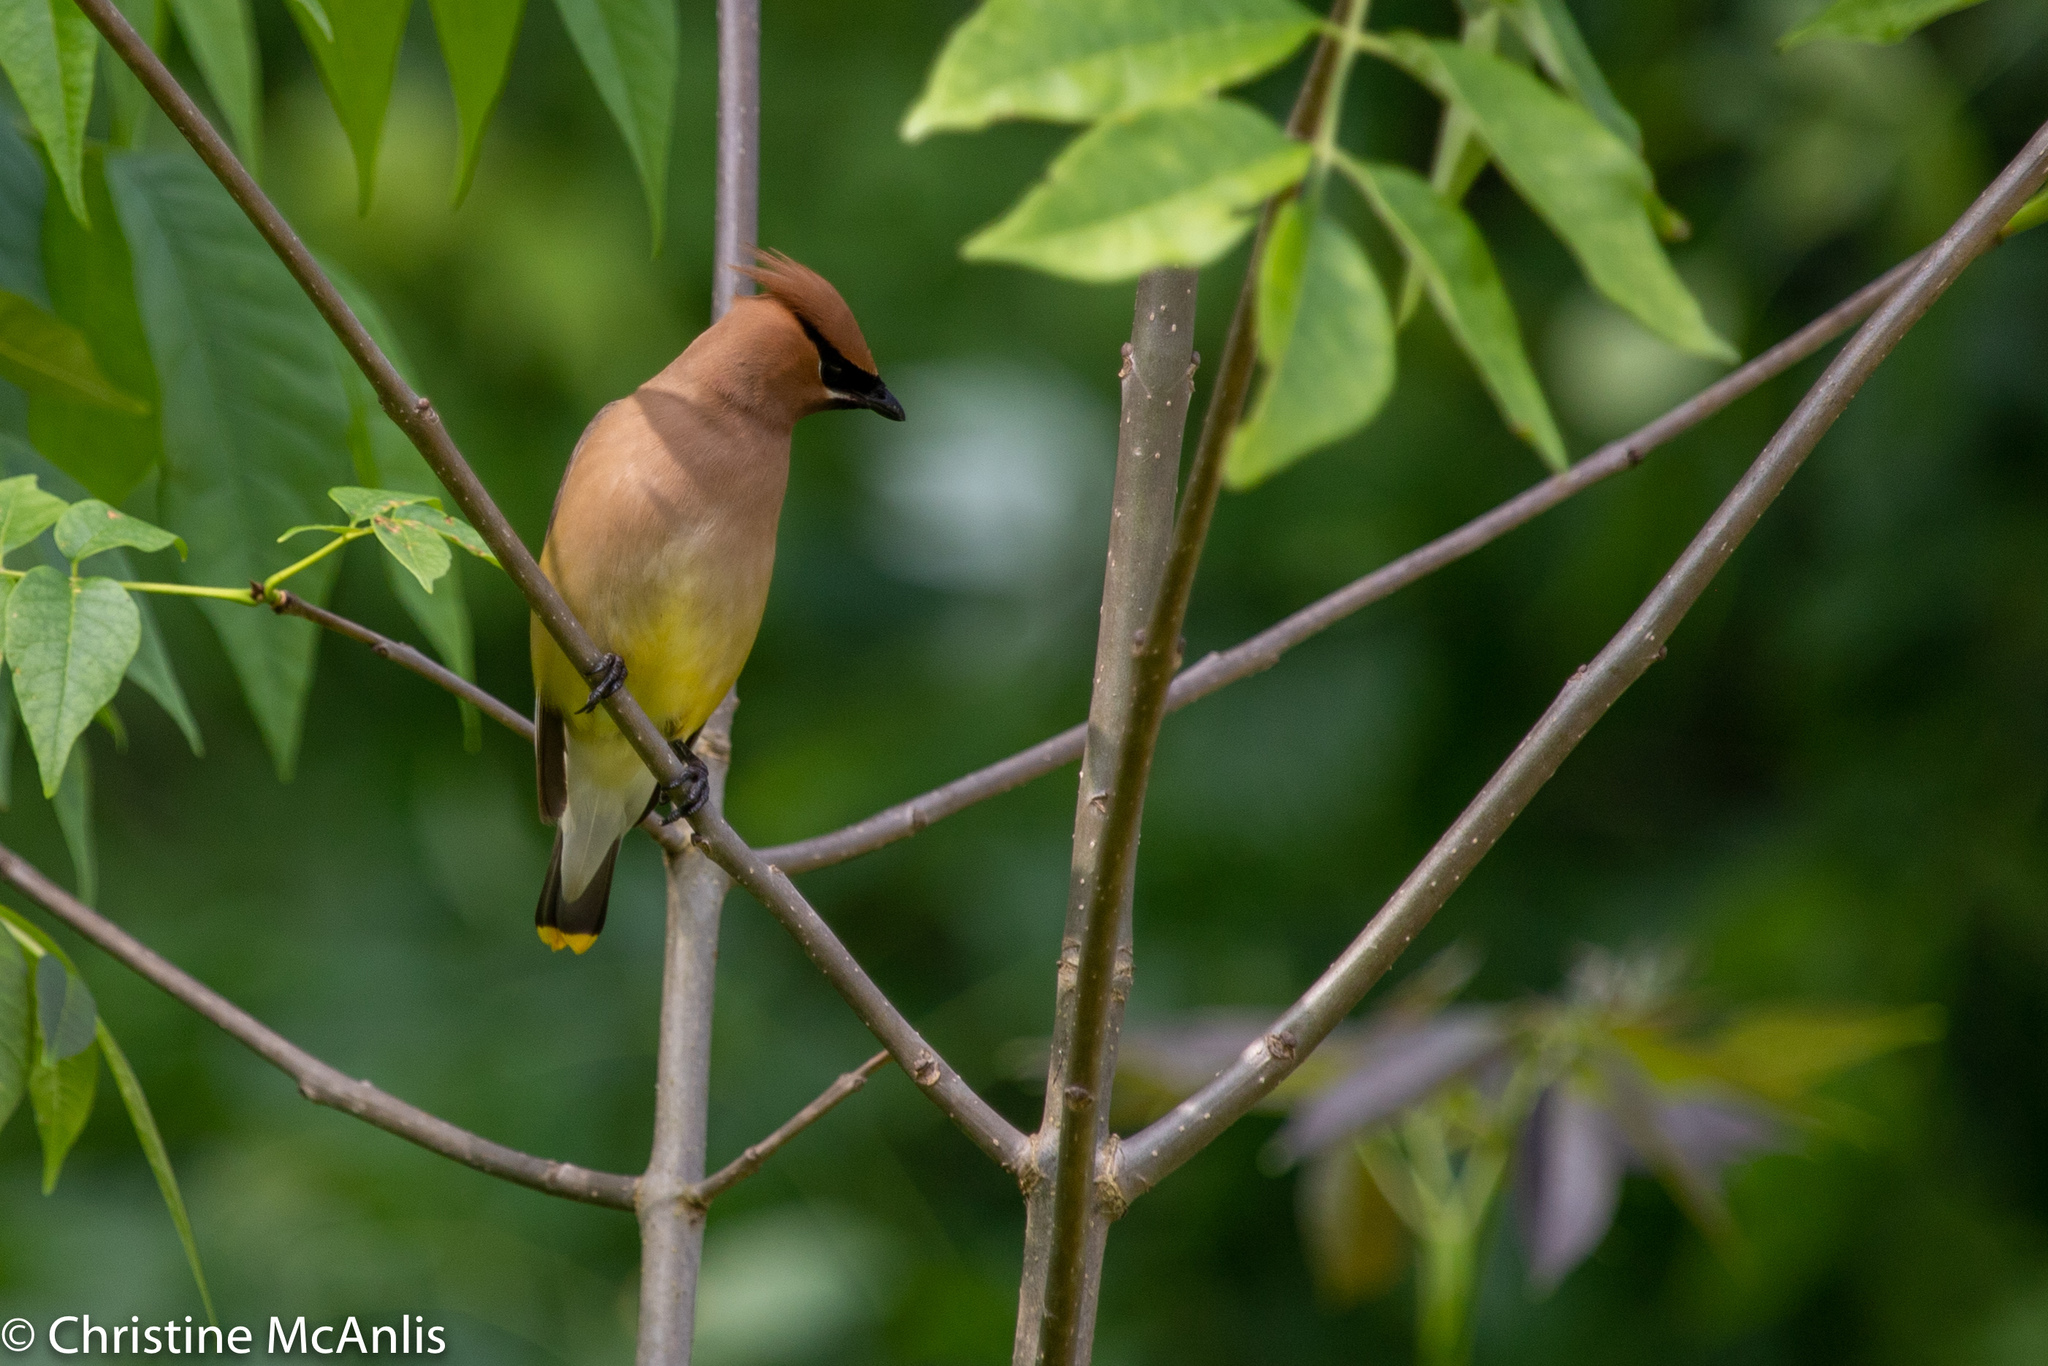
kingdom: Animalia
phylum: Chordata
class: Aves
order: Passeriformes
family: Bombycillidae
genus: Bombycilla
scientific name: Bombycilla cedrorum
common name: Cedar waxwing
